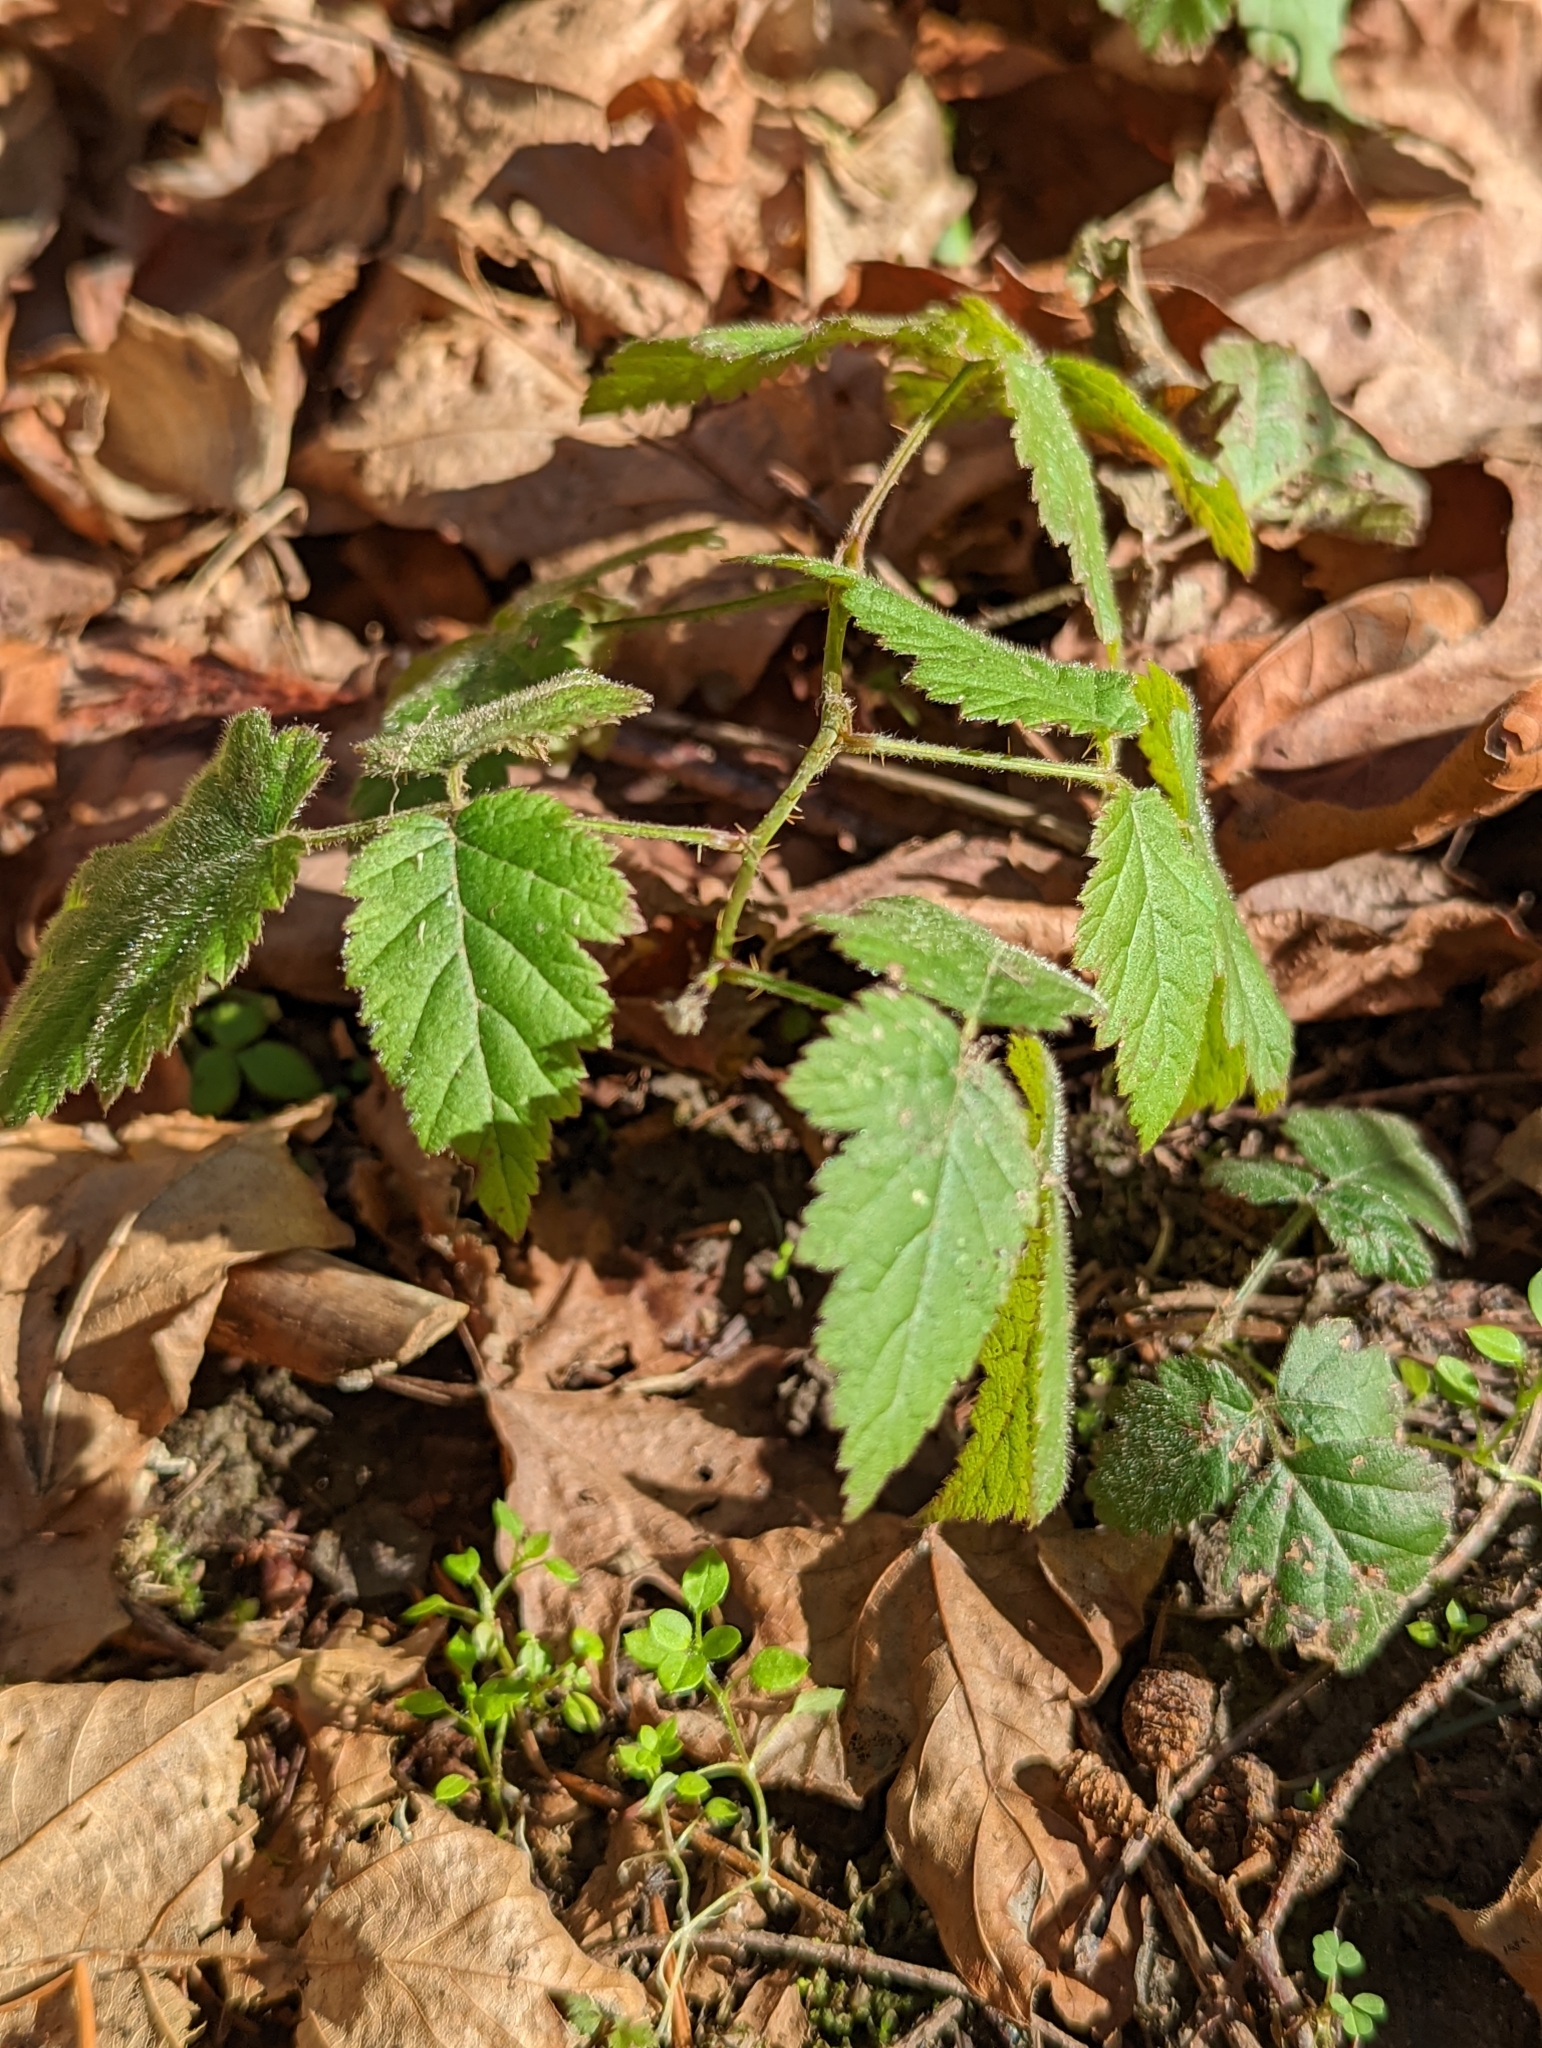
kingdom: Plantae
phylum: Tracheophyta
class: Magnoliopsida
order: Rosales
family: Rosaceae
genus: Rubus
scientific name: Rubus ursinus
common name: Pacific blackberry
